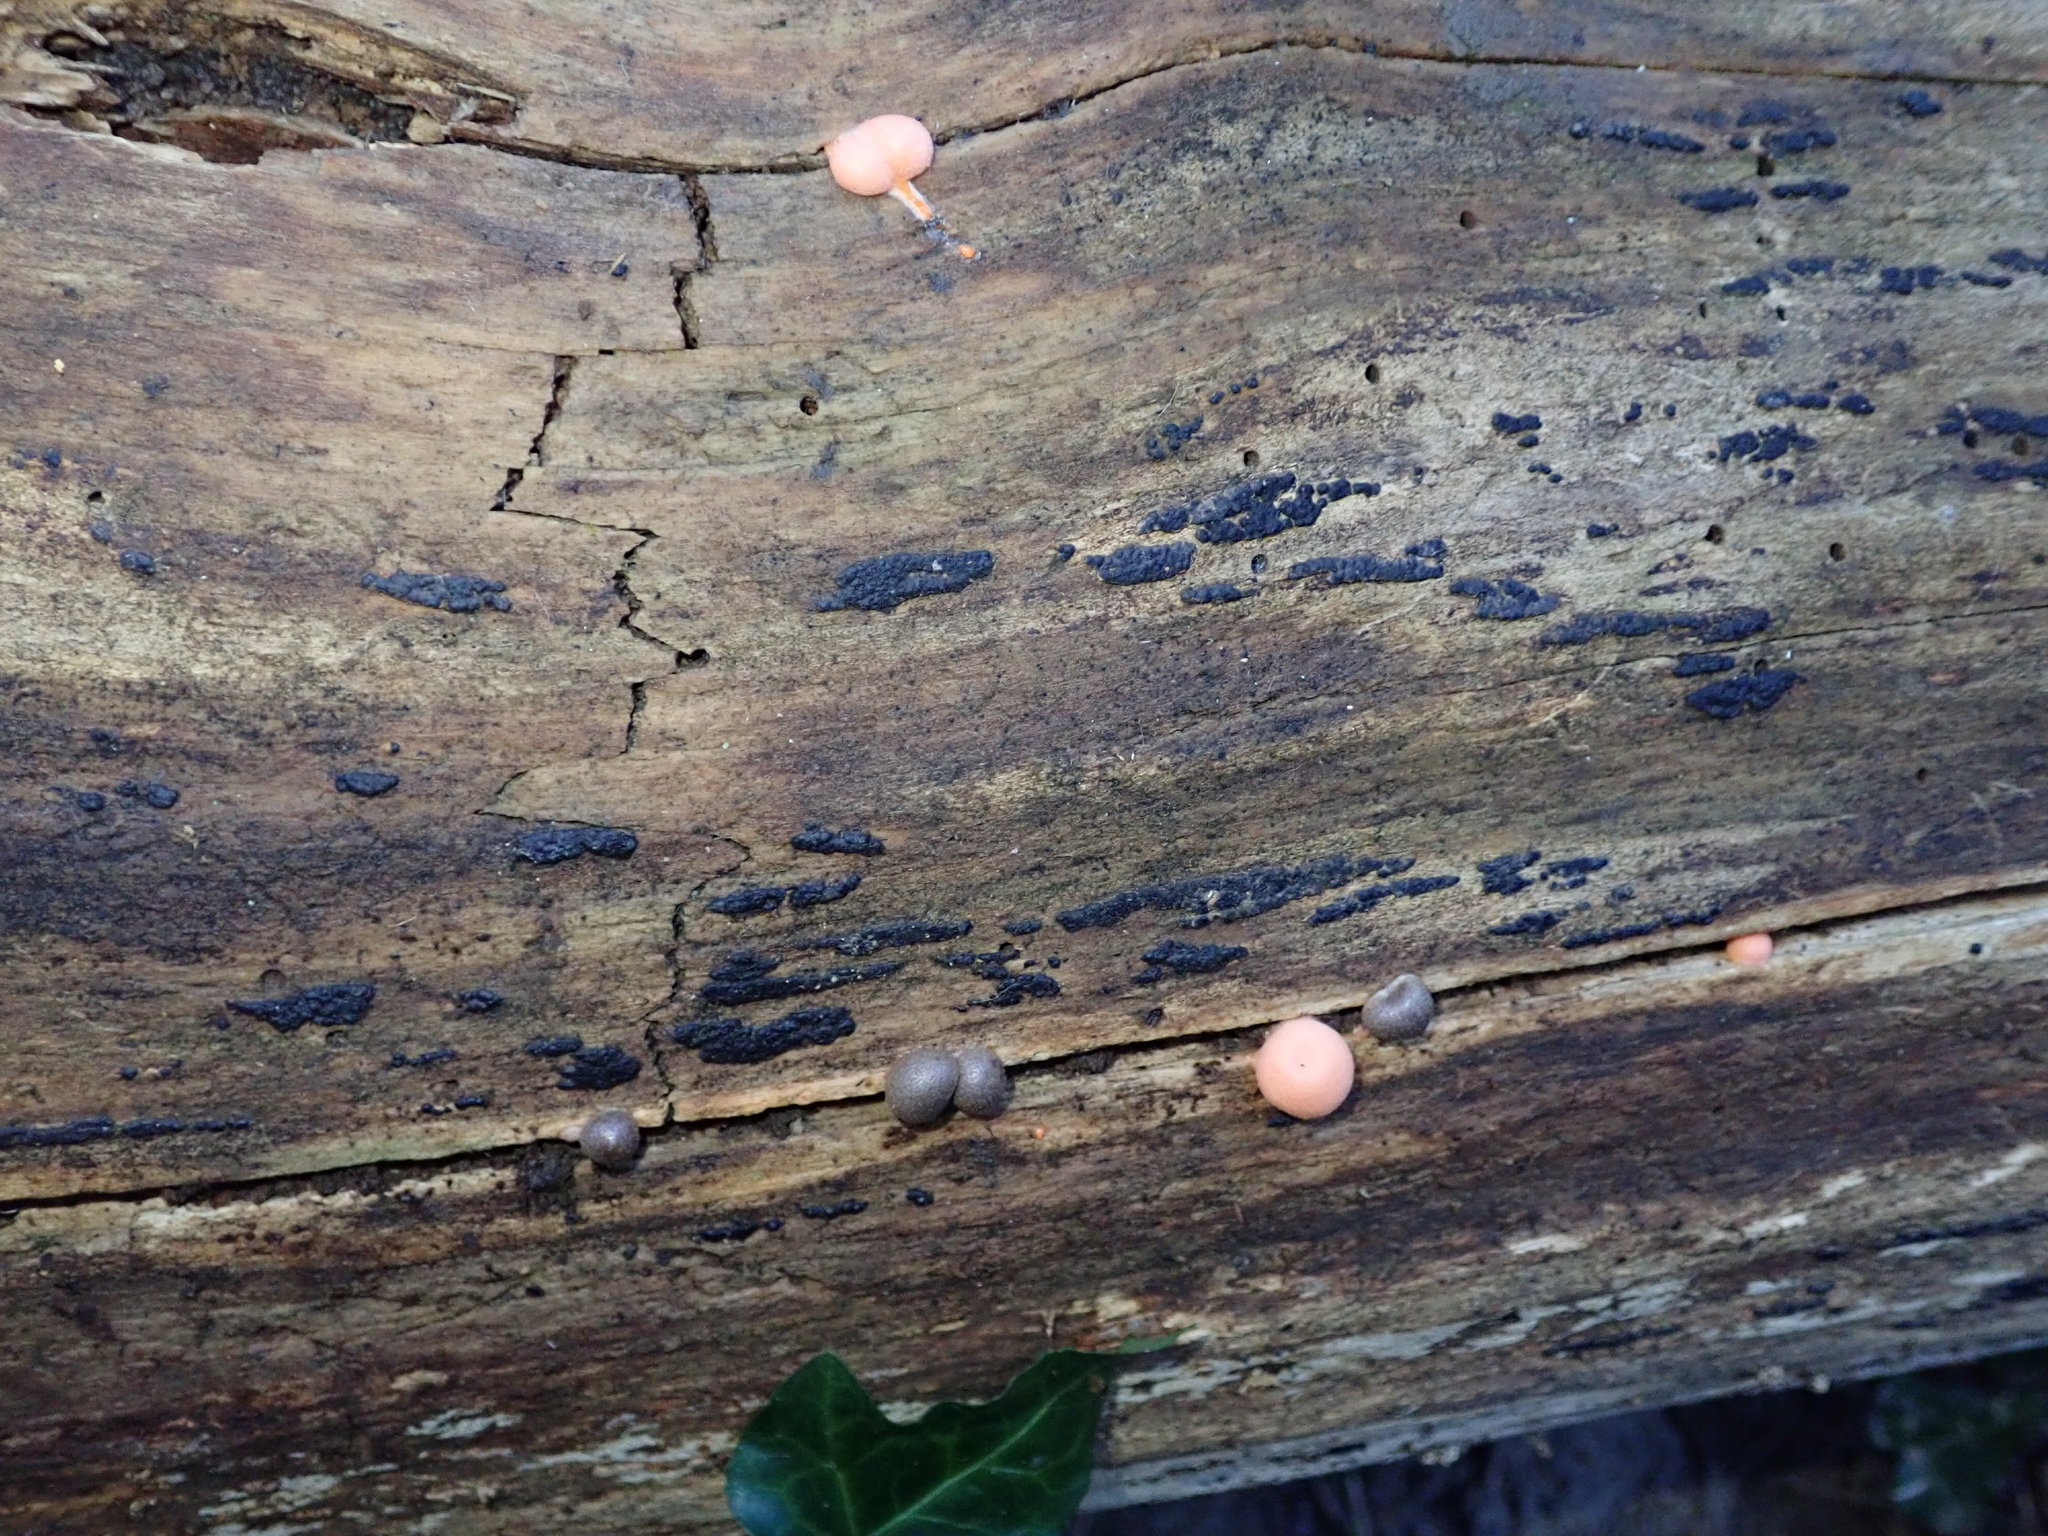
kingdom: Protozoa
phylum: Mycetozoa
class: Myxomycetes
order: Cribrariales
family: Tubiferaceae
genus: Lycogala
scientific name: Lycogala epidendrum
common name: Wolf's milk
